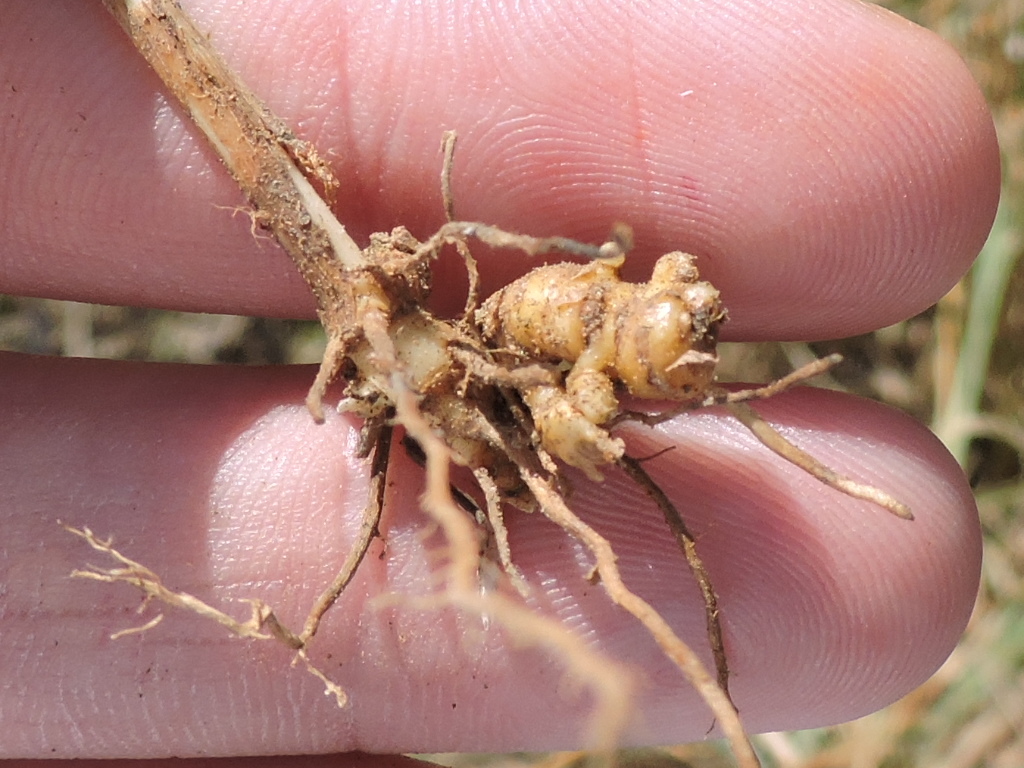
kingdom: Plantae
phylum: Tracheophyta
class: Liliopsida
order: Poales
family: Poaceae
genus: Setaria
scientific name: Setaria parviflora
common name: Knotroot bristle-grass
